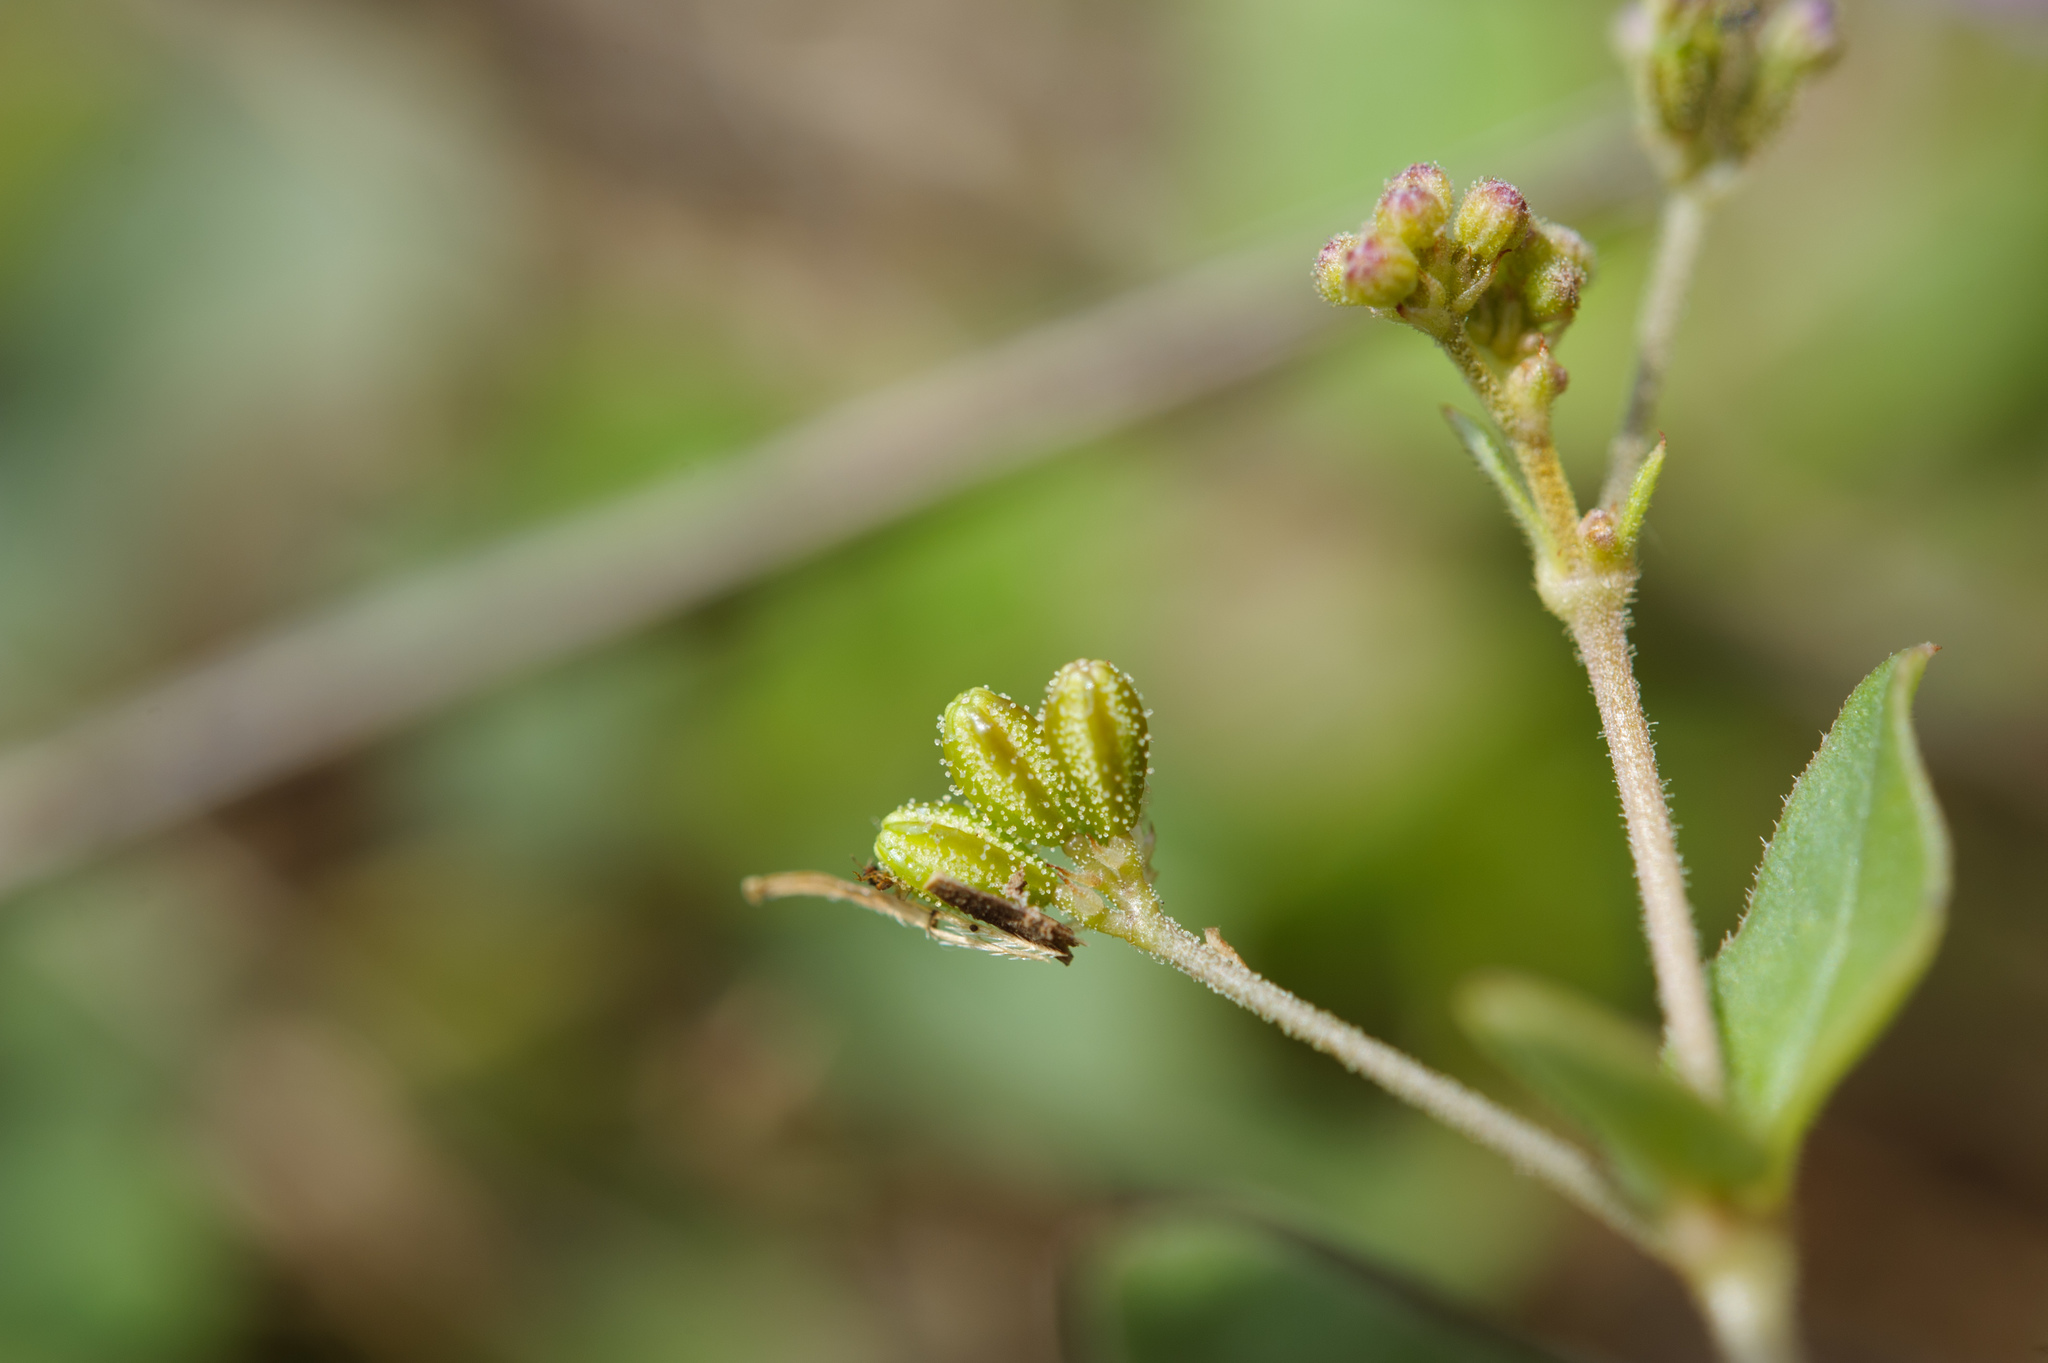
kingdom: Plantae
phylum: Tracheophyta
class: Magnoliopsida
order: Caryophyllales
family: Nyctaginaceae
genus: Boerhavia
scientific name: Boerhavia coccinea
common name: Scarlet spiderling
